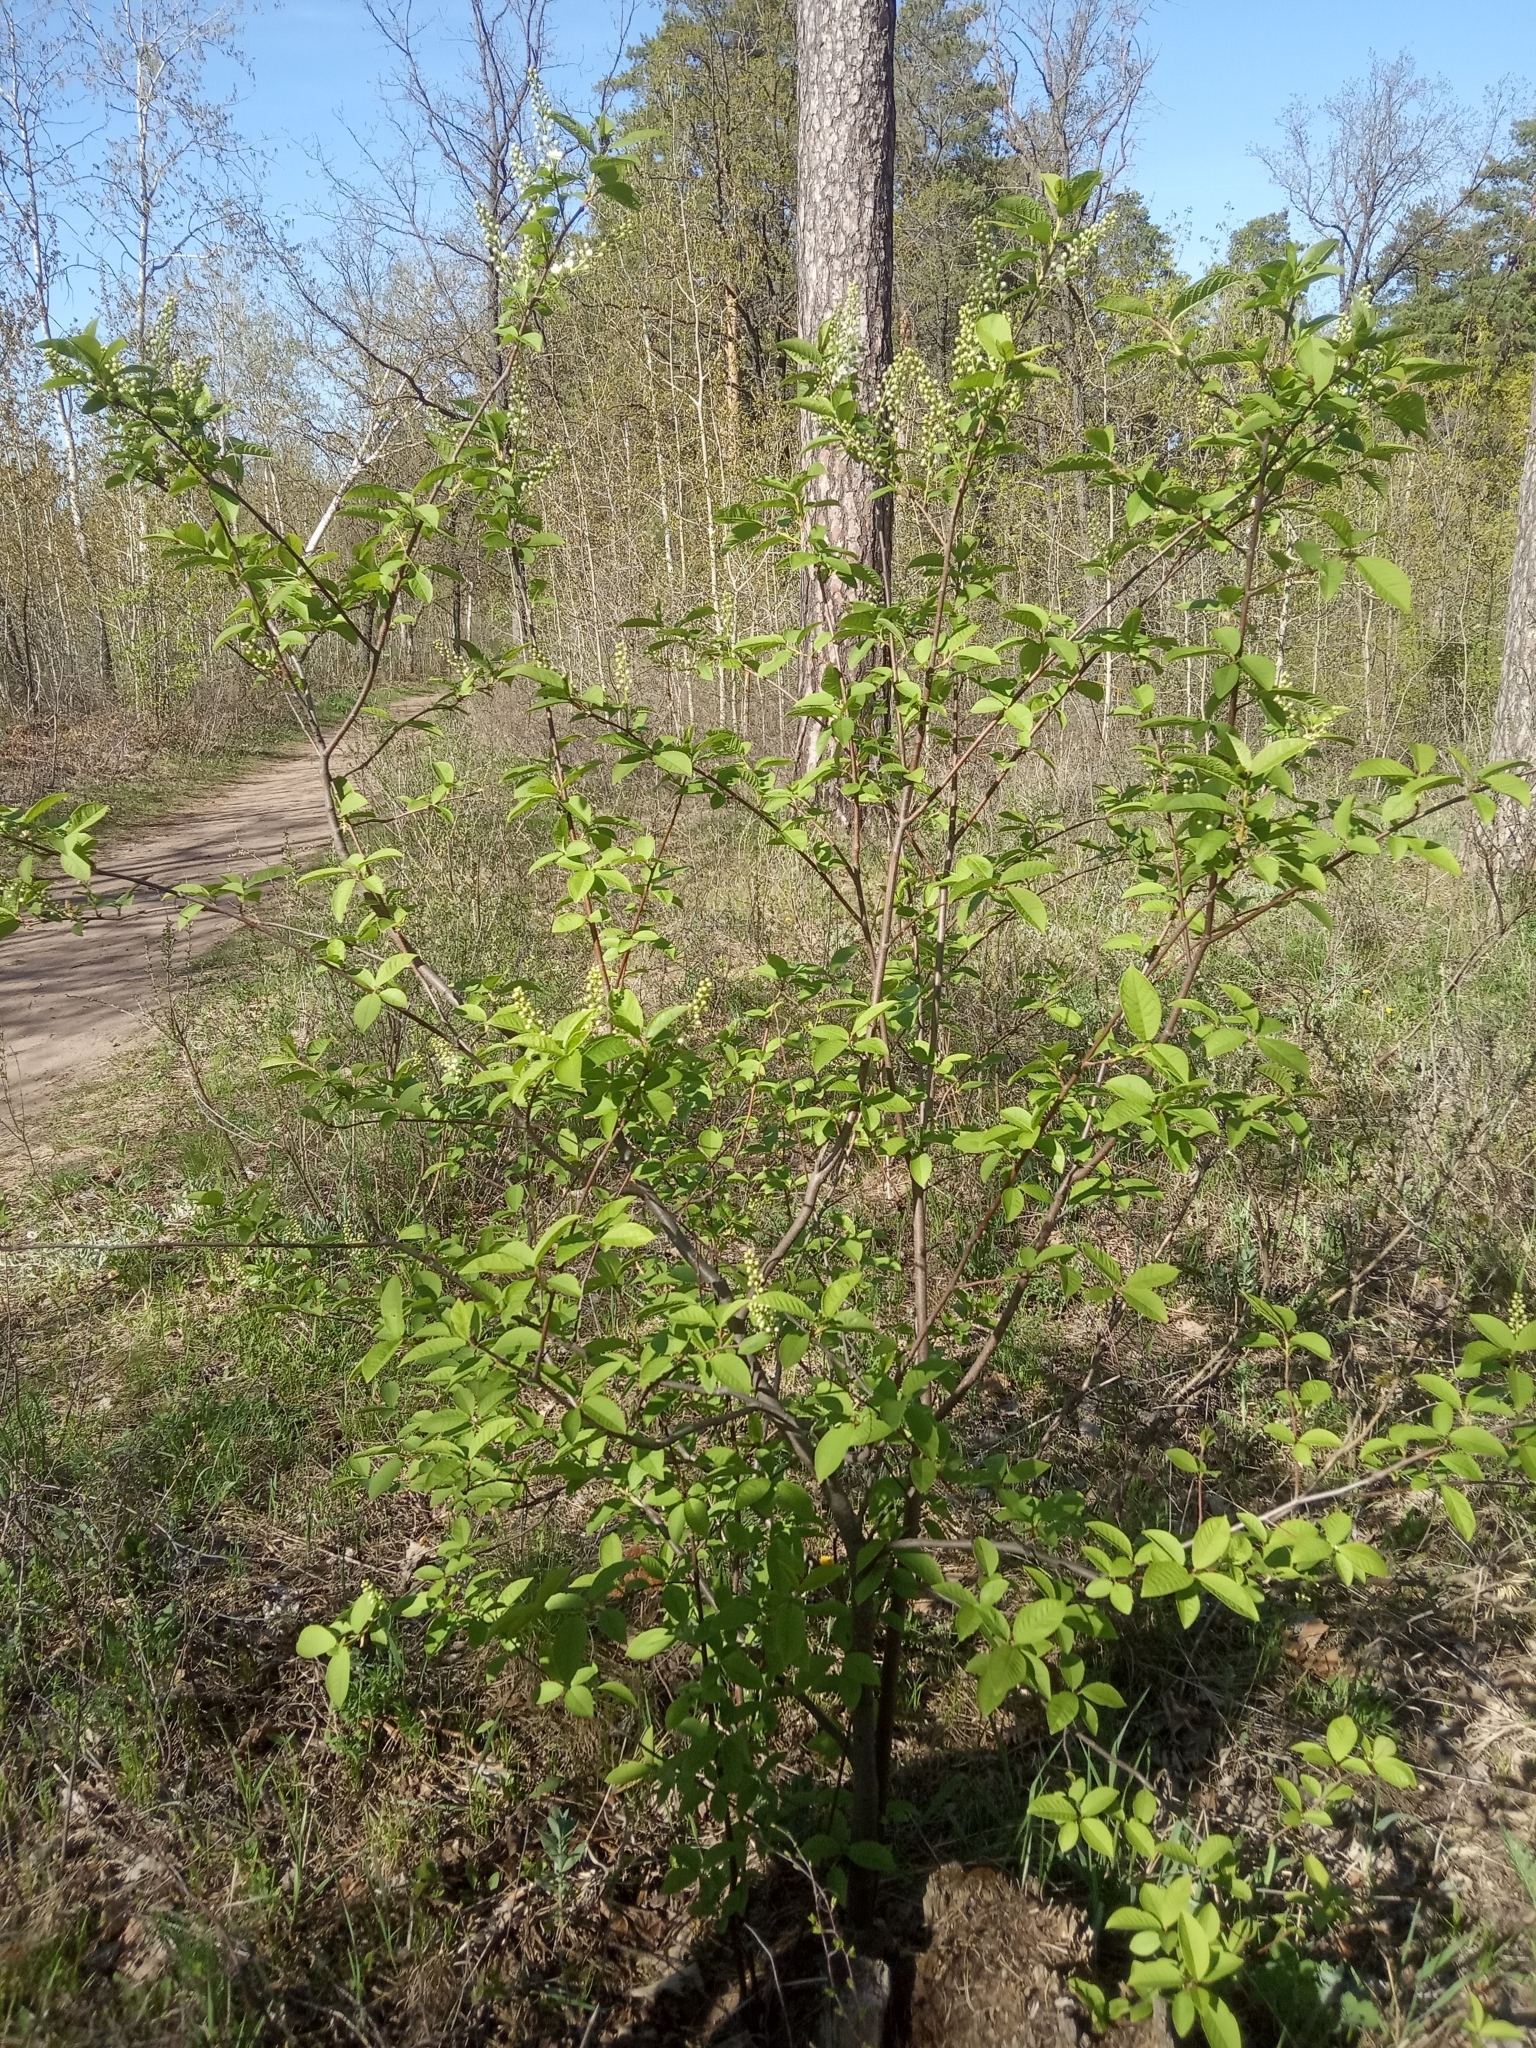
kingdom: Plantae
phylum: Tracheophyta
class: Magnoliopsida
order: Rosales
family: Rosaceae
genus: Prunus
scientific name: Prunus padus
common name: Bird cherry
